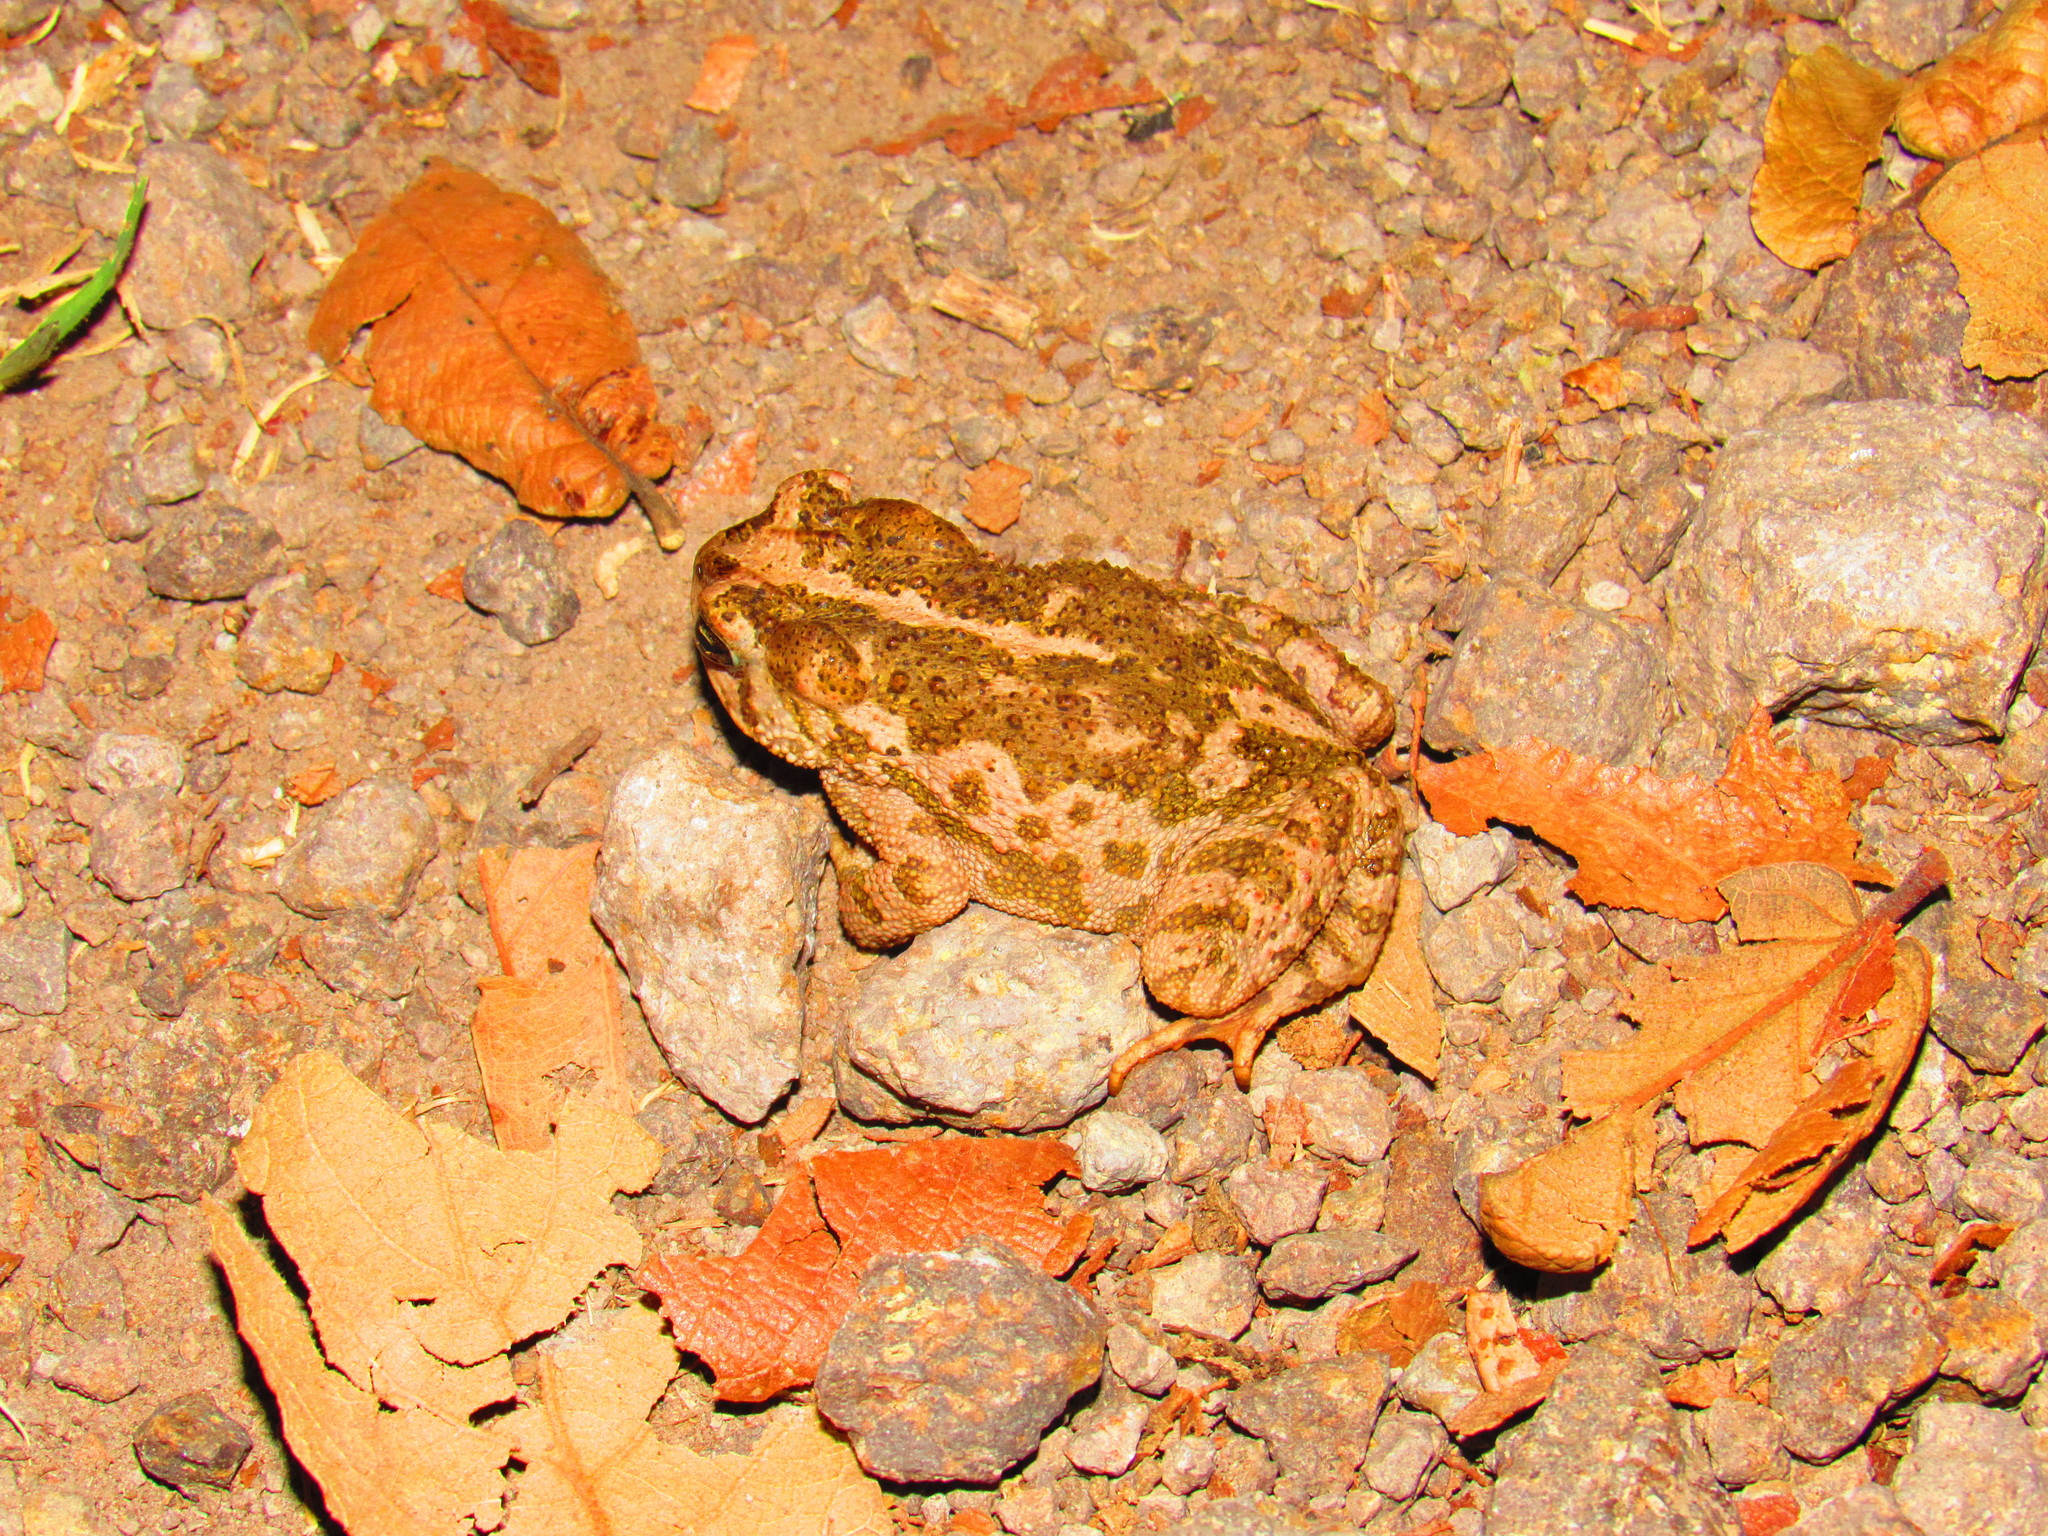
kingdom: Animalia
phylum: Chordata
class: Amphibia
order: Anura
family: Bufonidae
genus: Incilius
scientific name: Incilius occidentalis
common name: Pine toad
